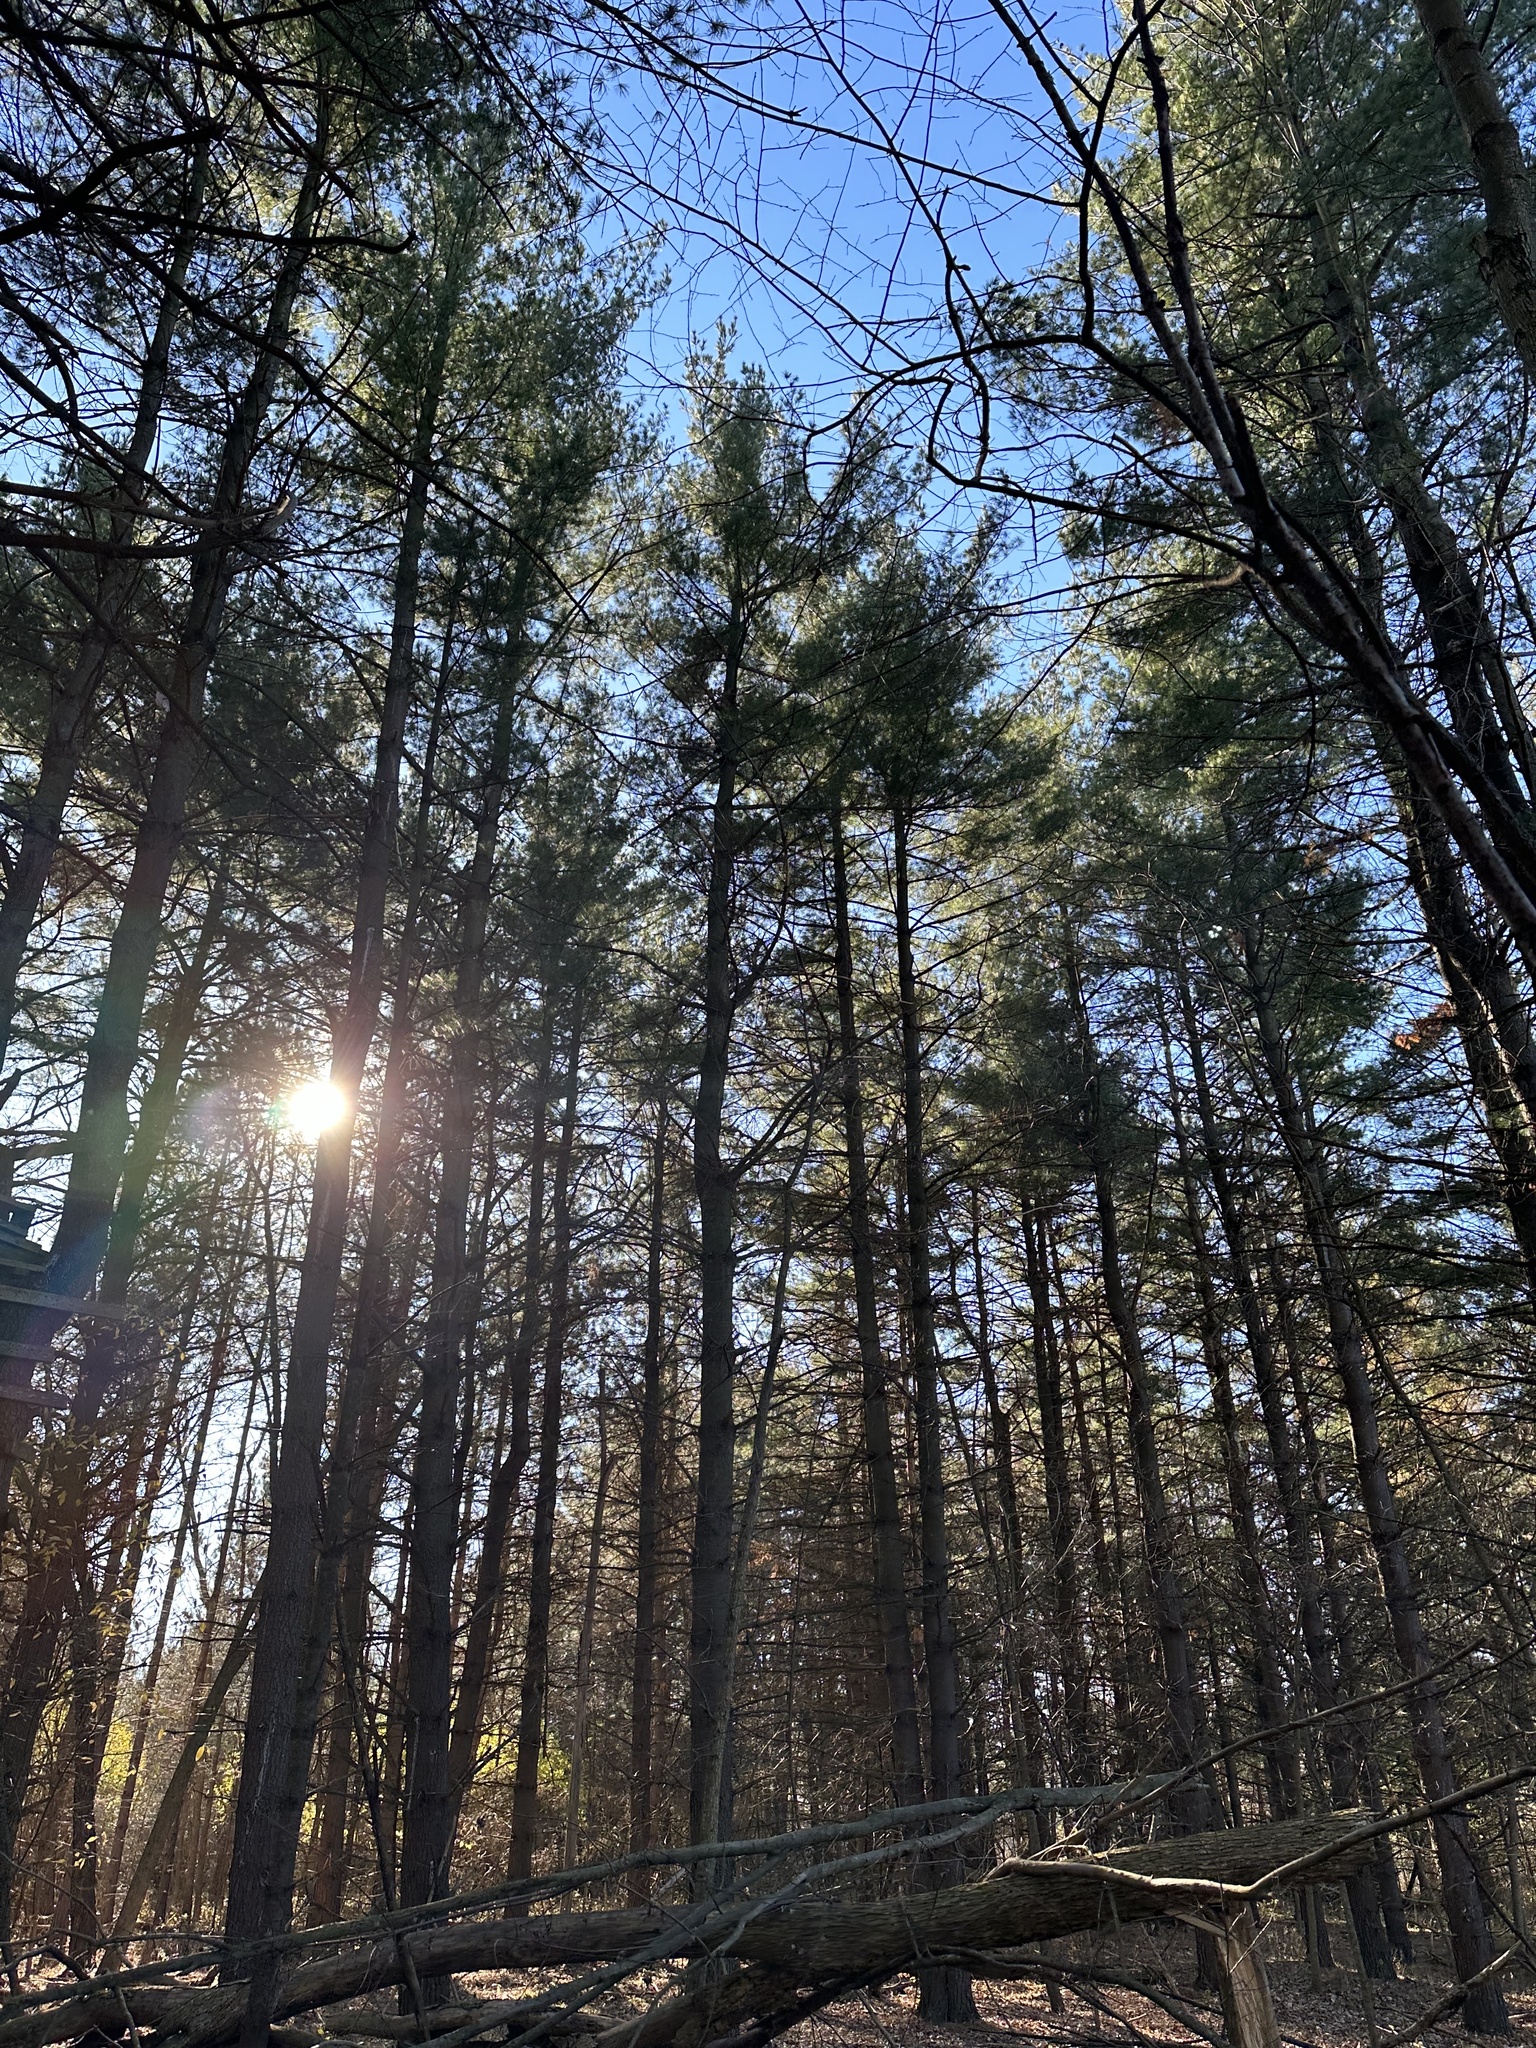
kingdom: Plantae
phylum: Tracheophyta
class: Pinopsida
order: Pinales
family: Pinaceae
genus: Pinus
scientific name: Pinus strobus
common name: Weymouth pine
